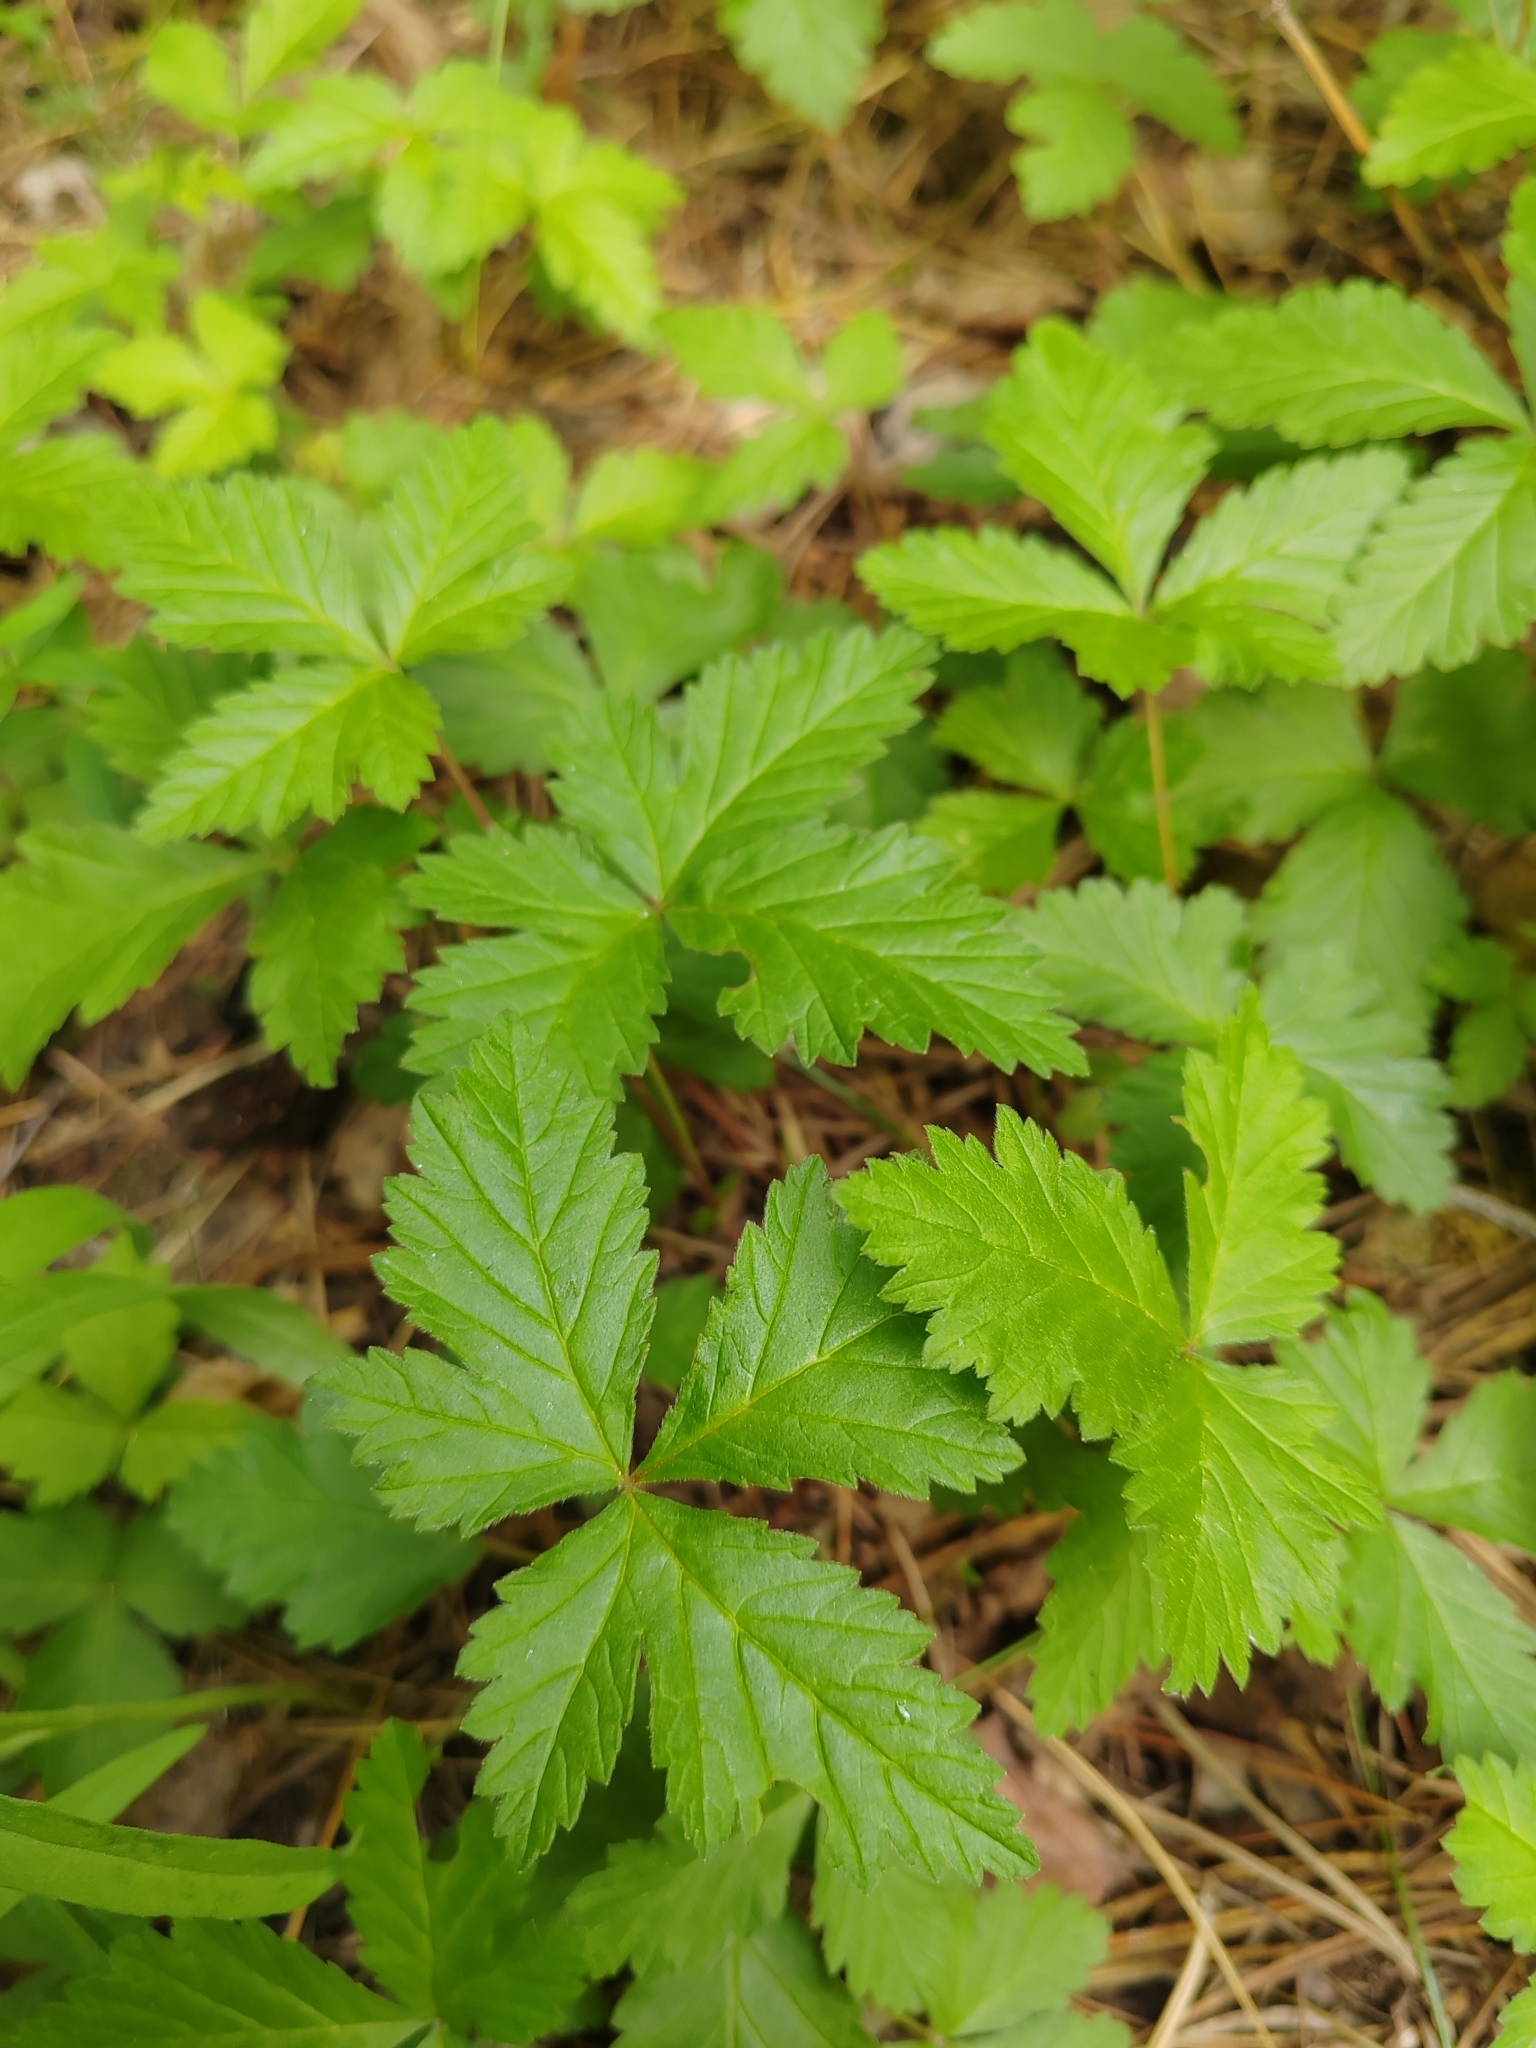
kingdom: Plantae
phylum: Tracheophyta
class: Magnoliopsida
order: Rosales
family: Rosaceae
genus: Rubus
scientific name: Rubus arcticus
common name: Arctic bramble
